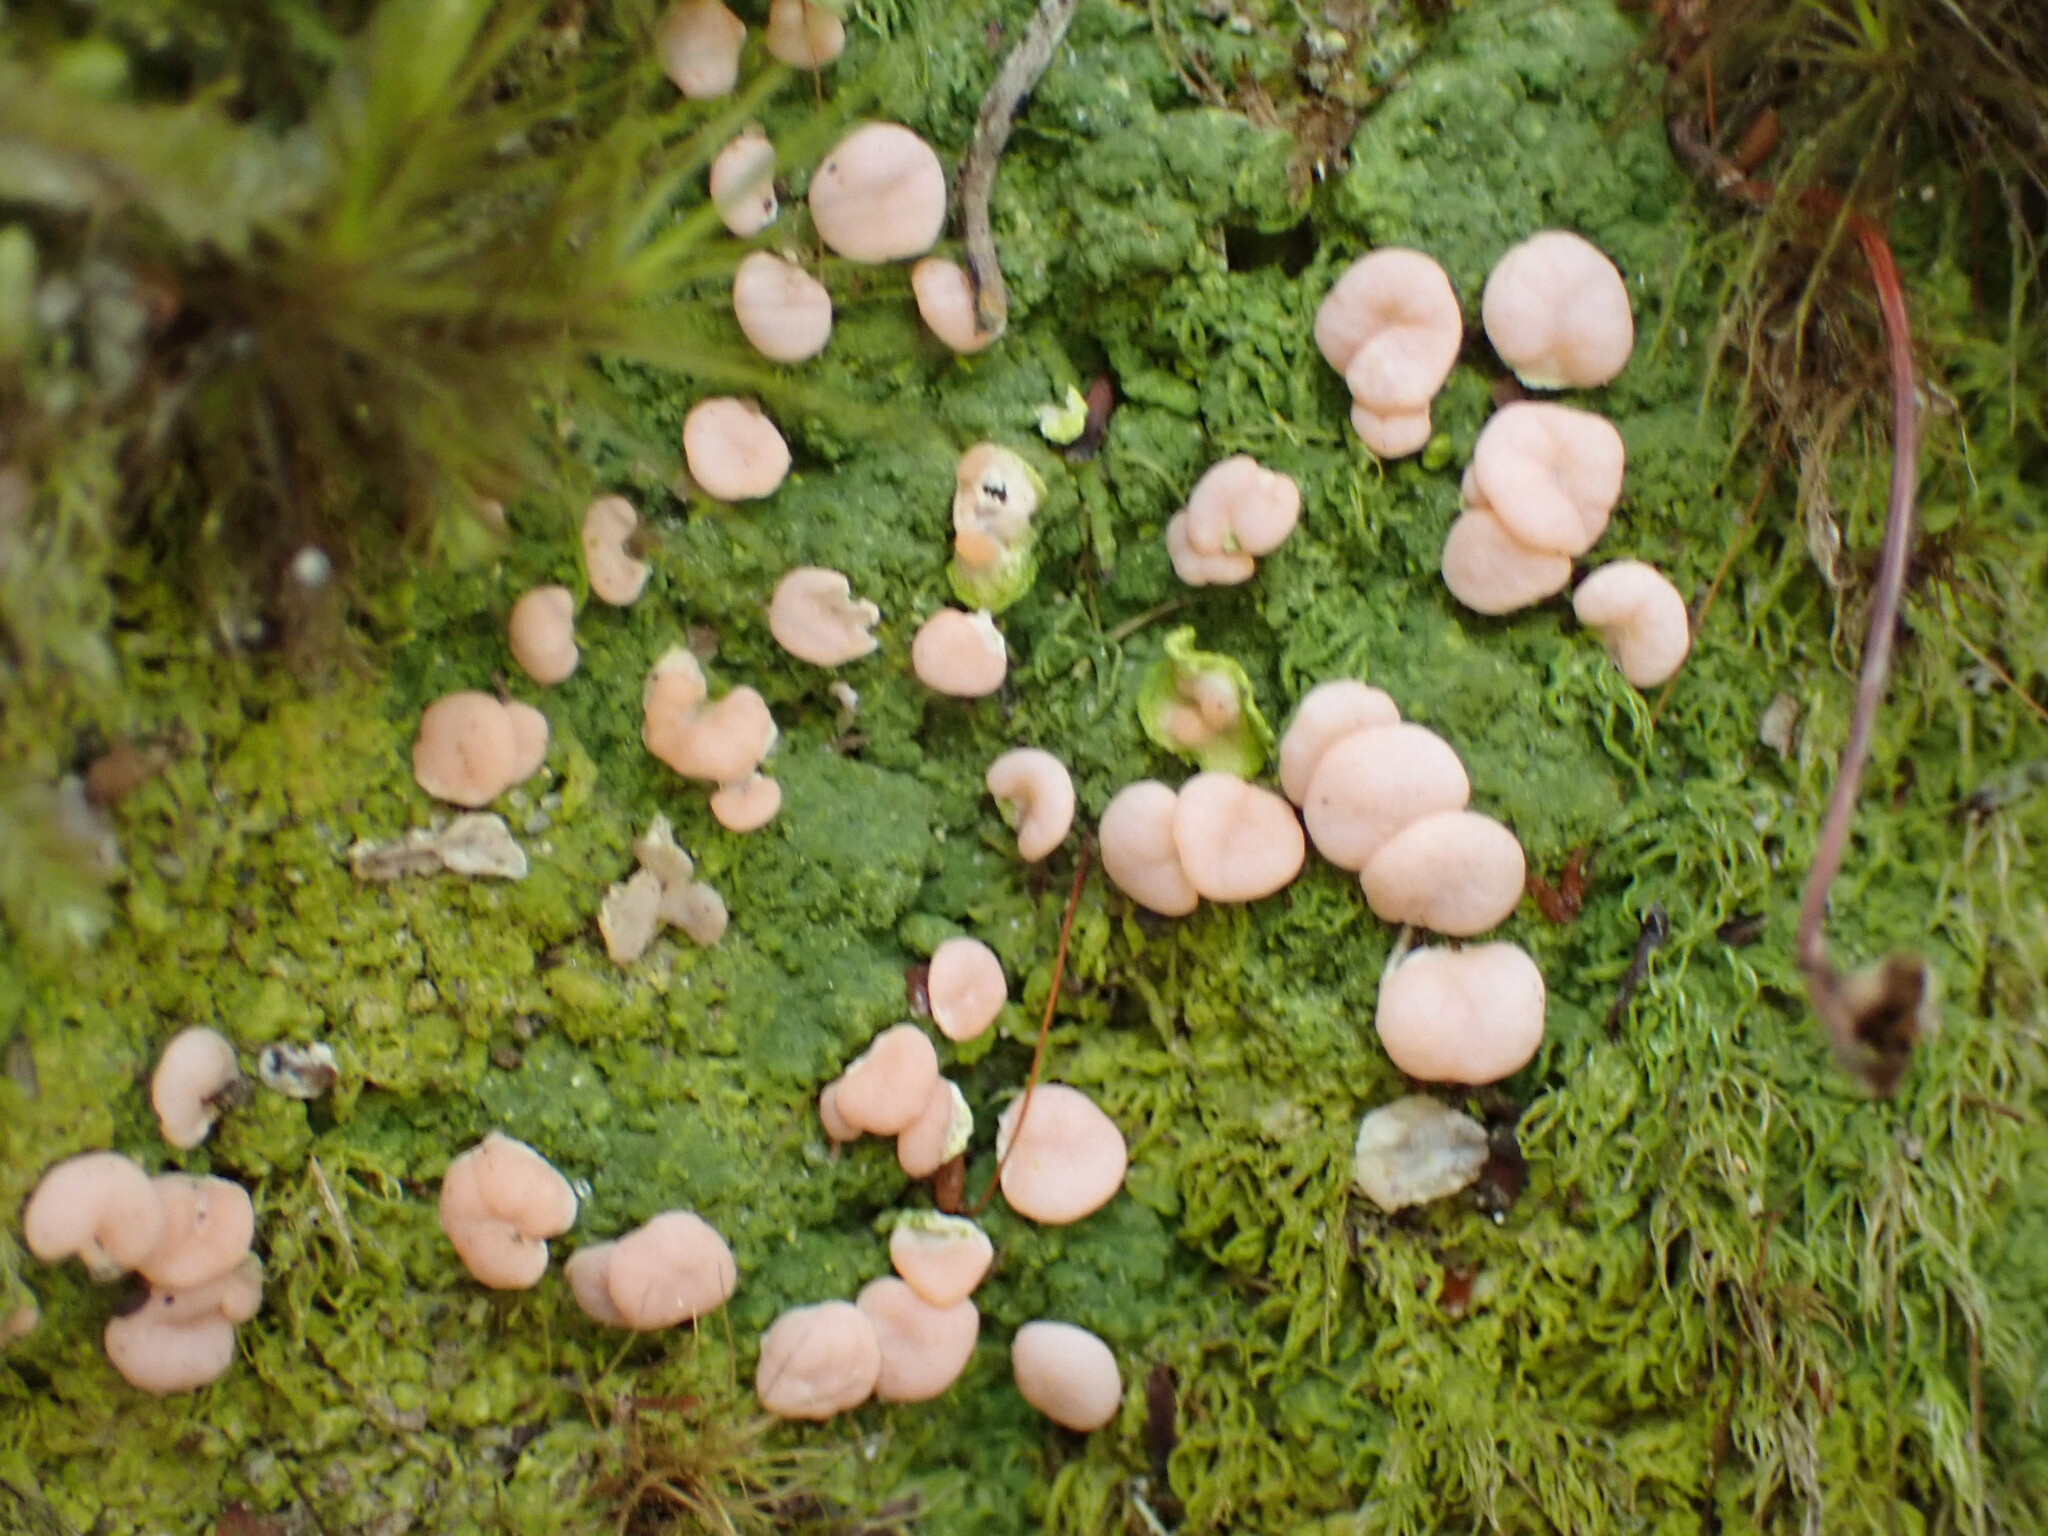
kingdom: Fungi
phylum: Ascomycota
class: Lecanoromycetes
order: Pertusariales
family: Icmadophilaceae
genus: Dibaeis
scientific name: Dibaeis absoluta
